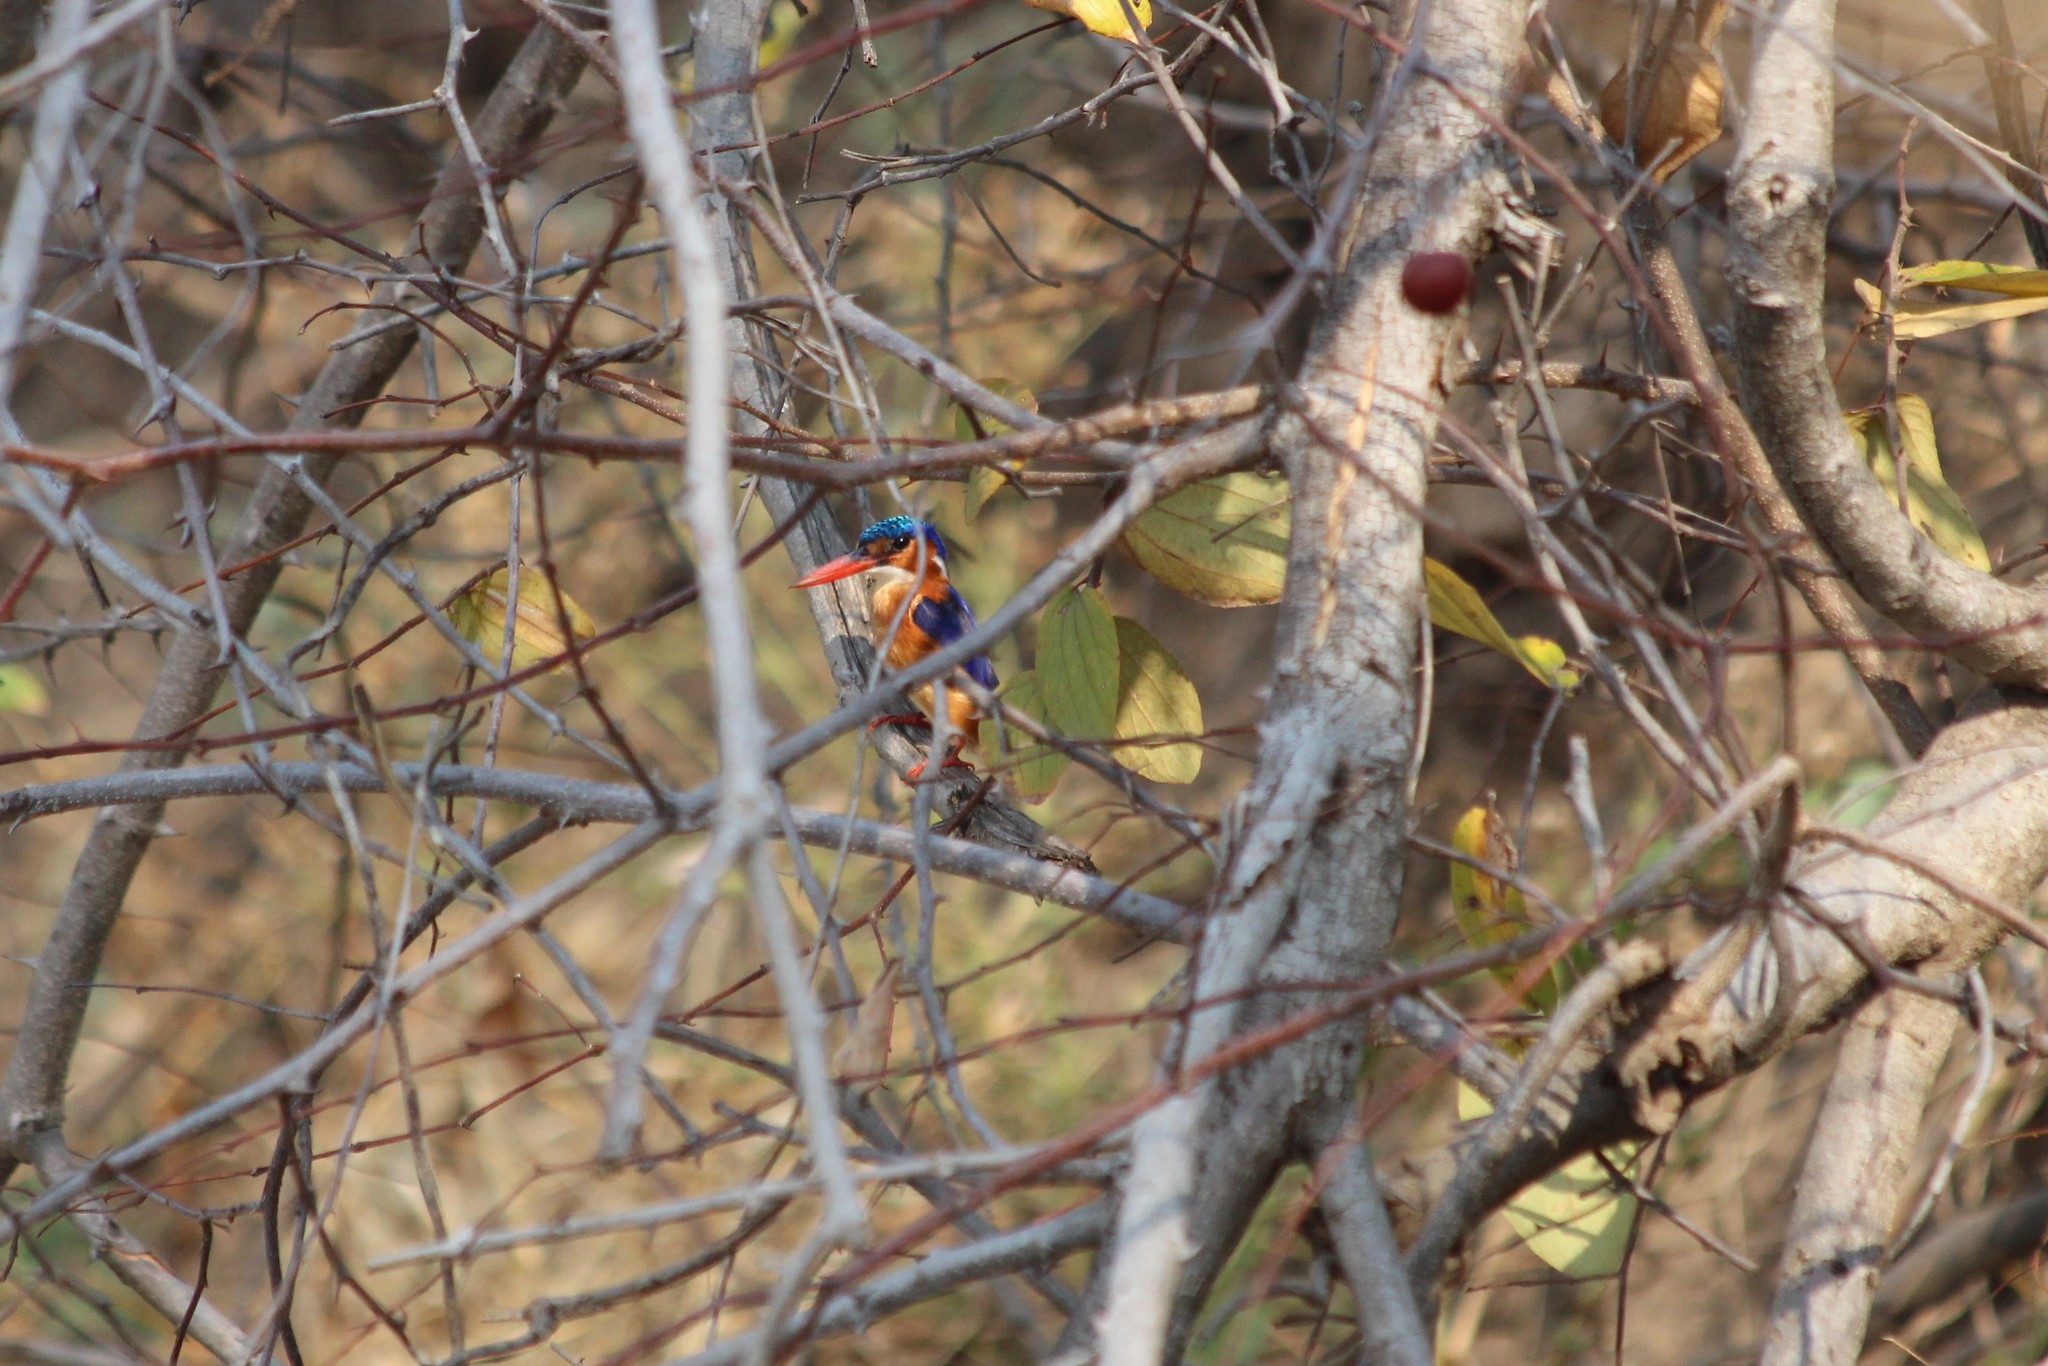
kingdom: Animalia
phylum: Chordata
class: Aves
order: Coraciiformes
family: Alcedinidae
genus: Corythornis
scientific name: Corythornis cristatus
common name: Malachite kingfisher
